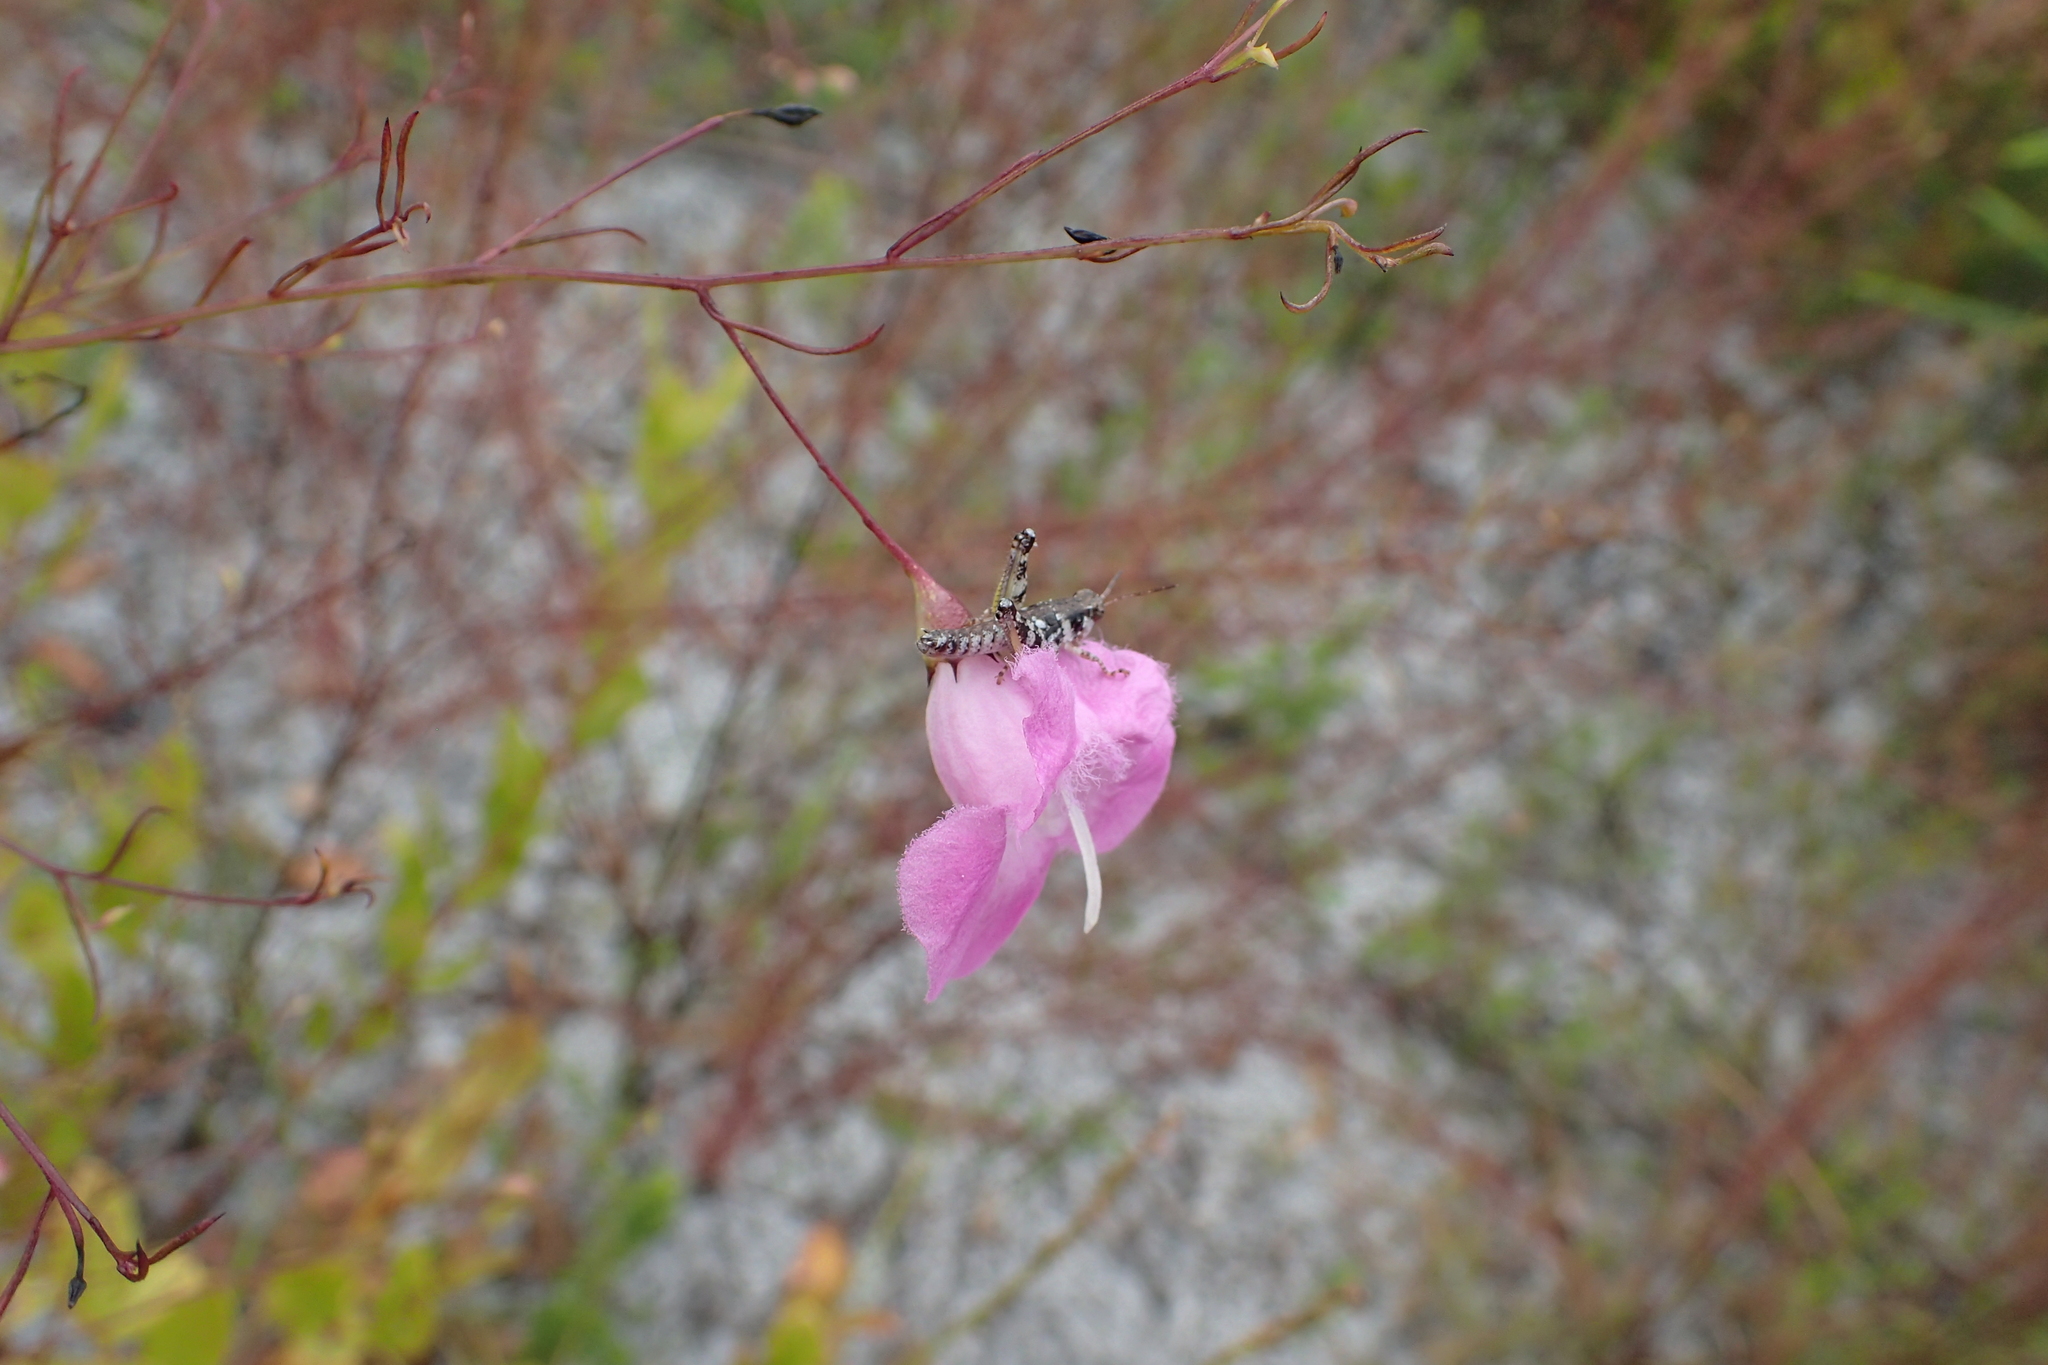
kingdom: Plantae
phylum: Tracheophyta
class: Magnoliopsida
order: Lamiales
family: Orobanchaceae
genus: Agalinis
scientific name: Agalinis filifolia
